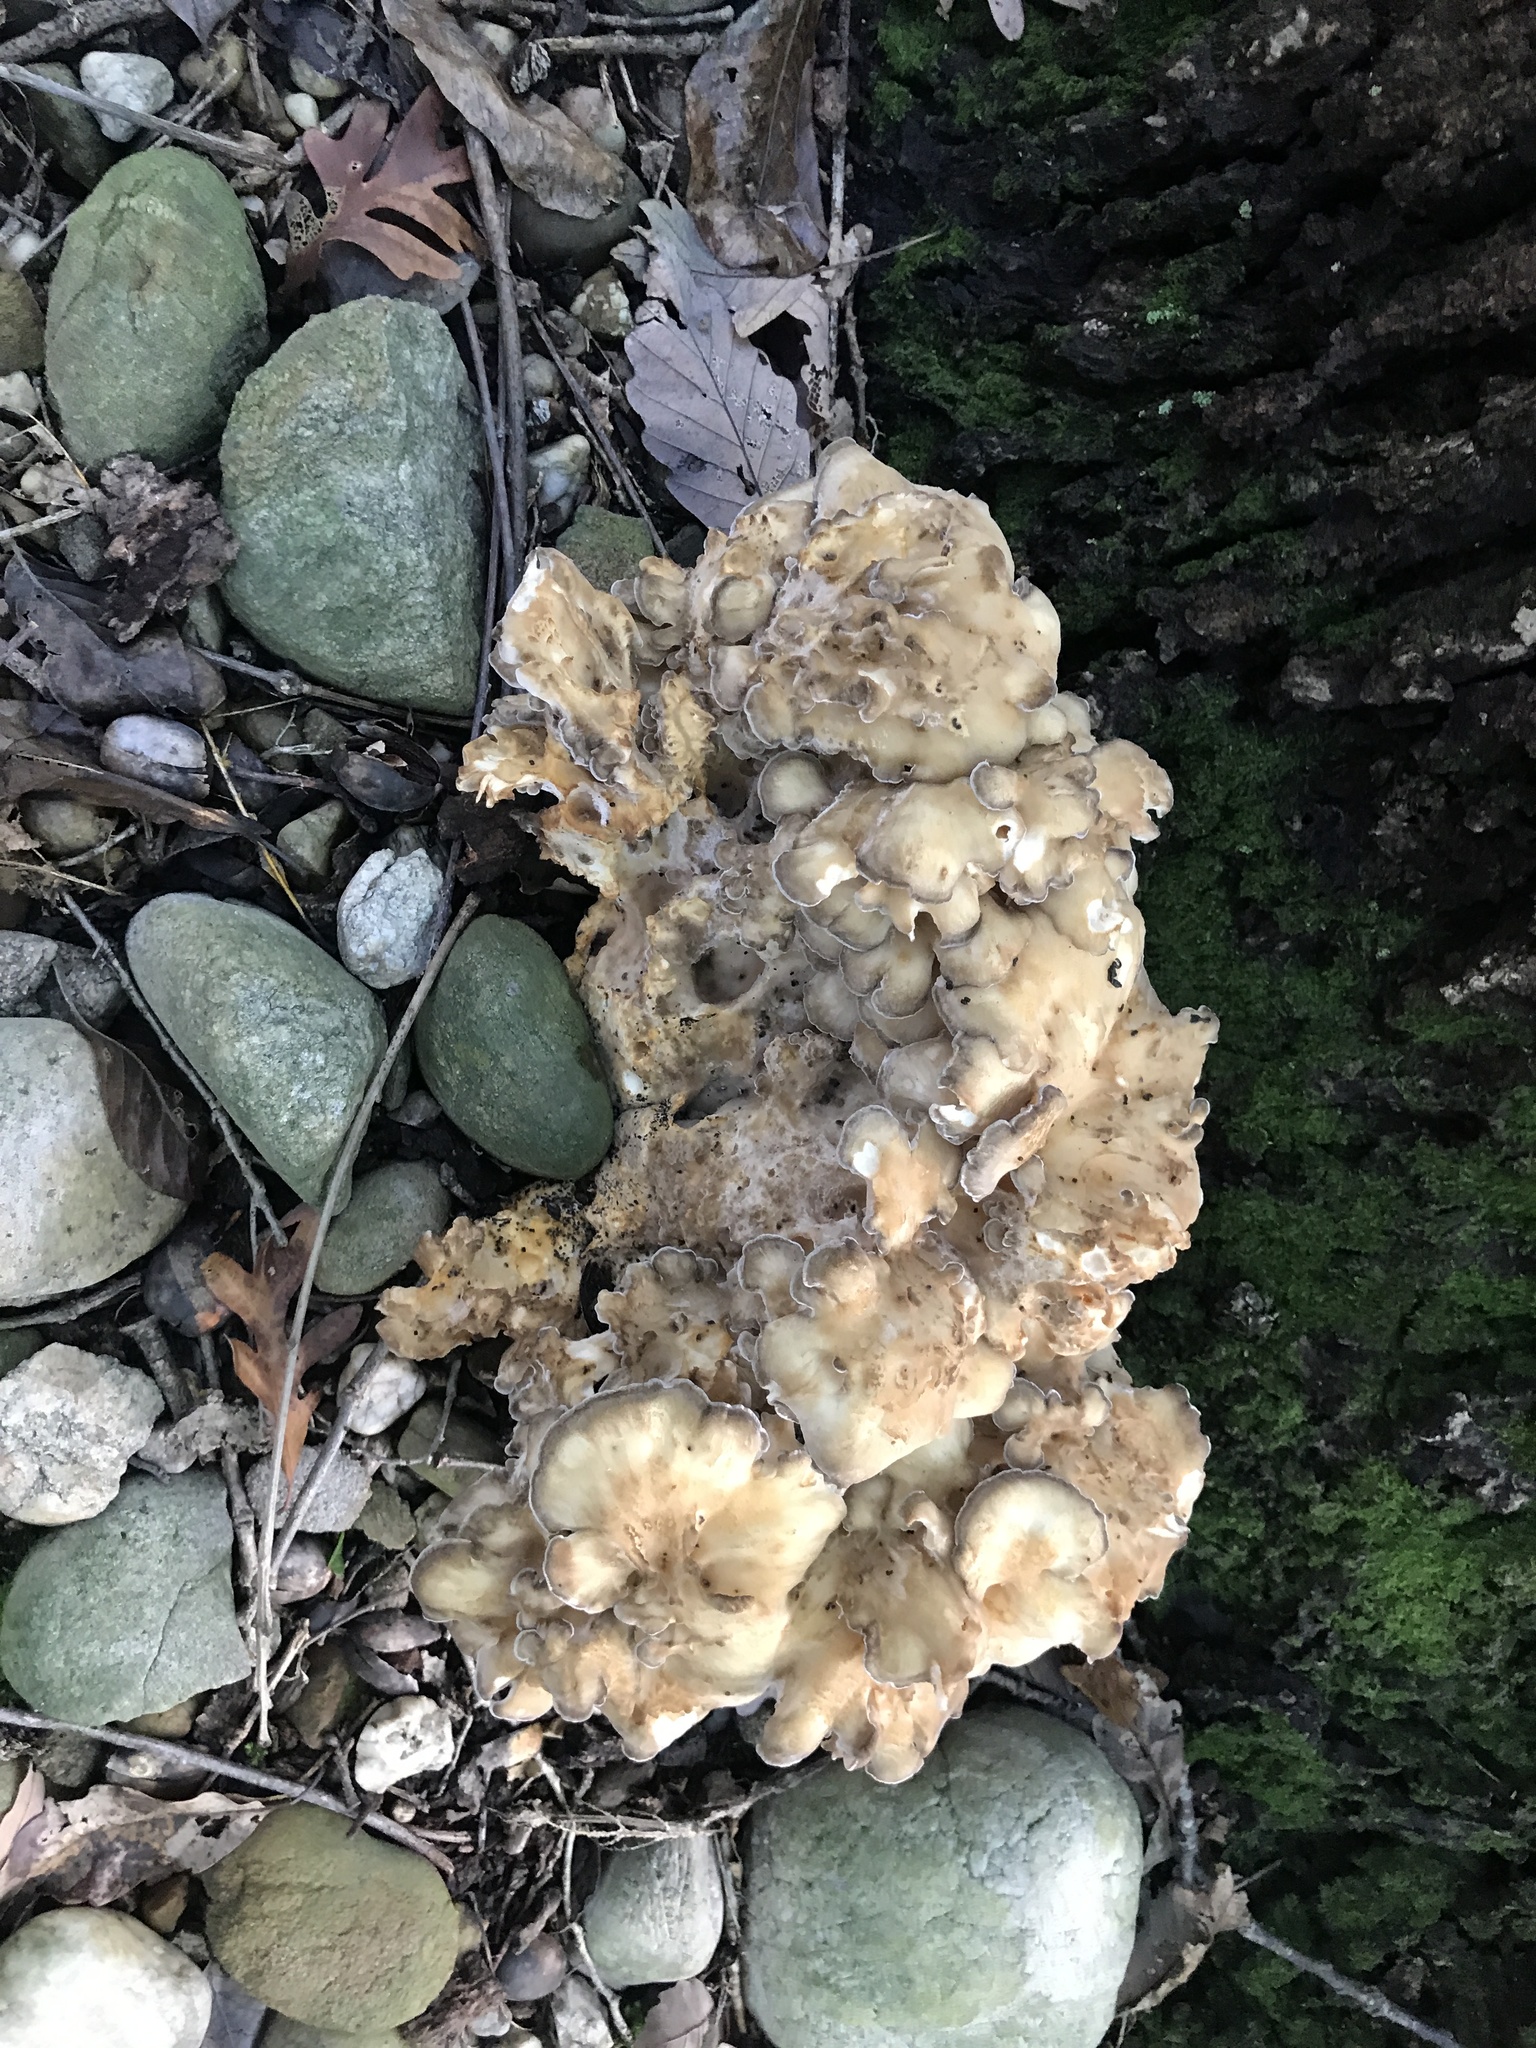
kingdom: Fungi
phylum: Basidiomycota
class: Agaricomycetes
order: Polyporales
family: Grifolaceae
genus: Grifola
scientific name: Grifola frondosa
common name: Hen of the woods
